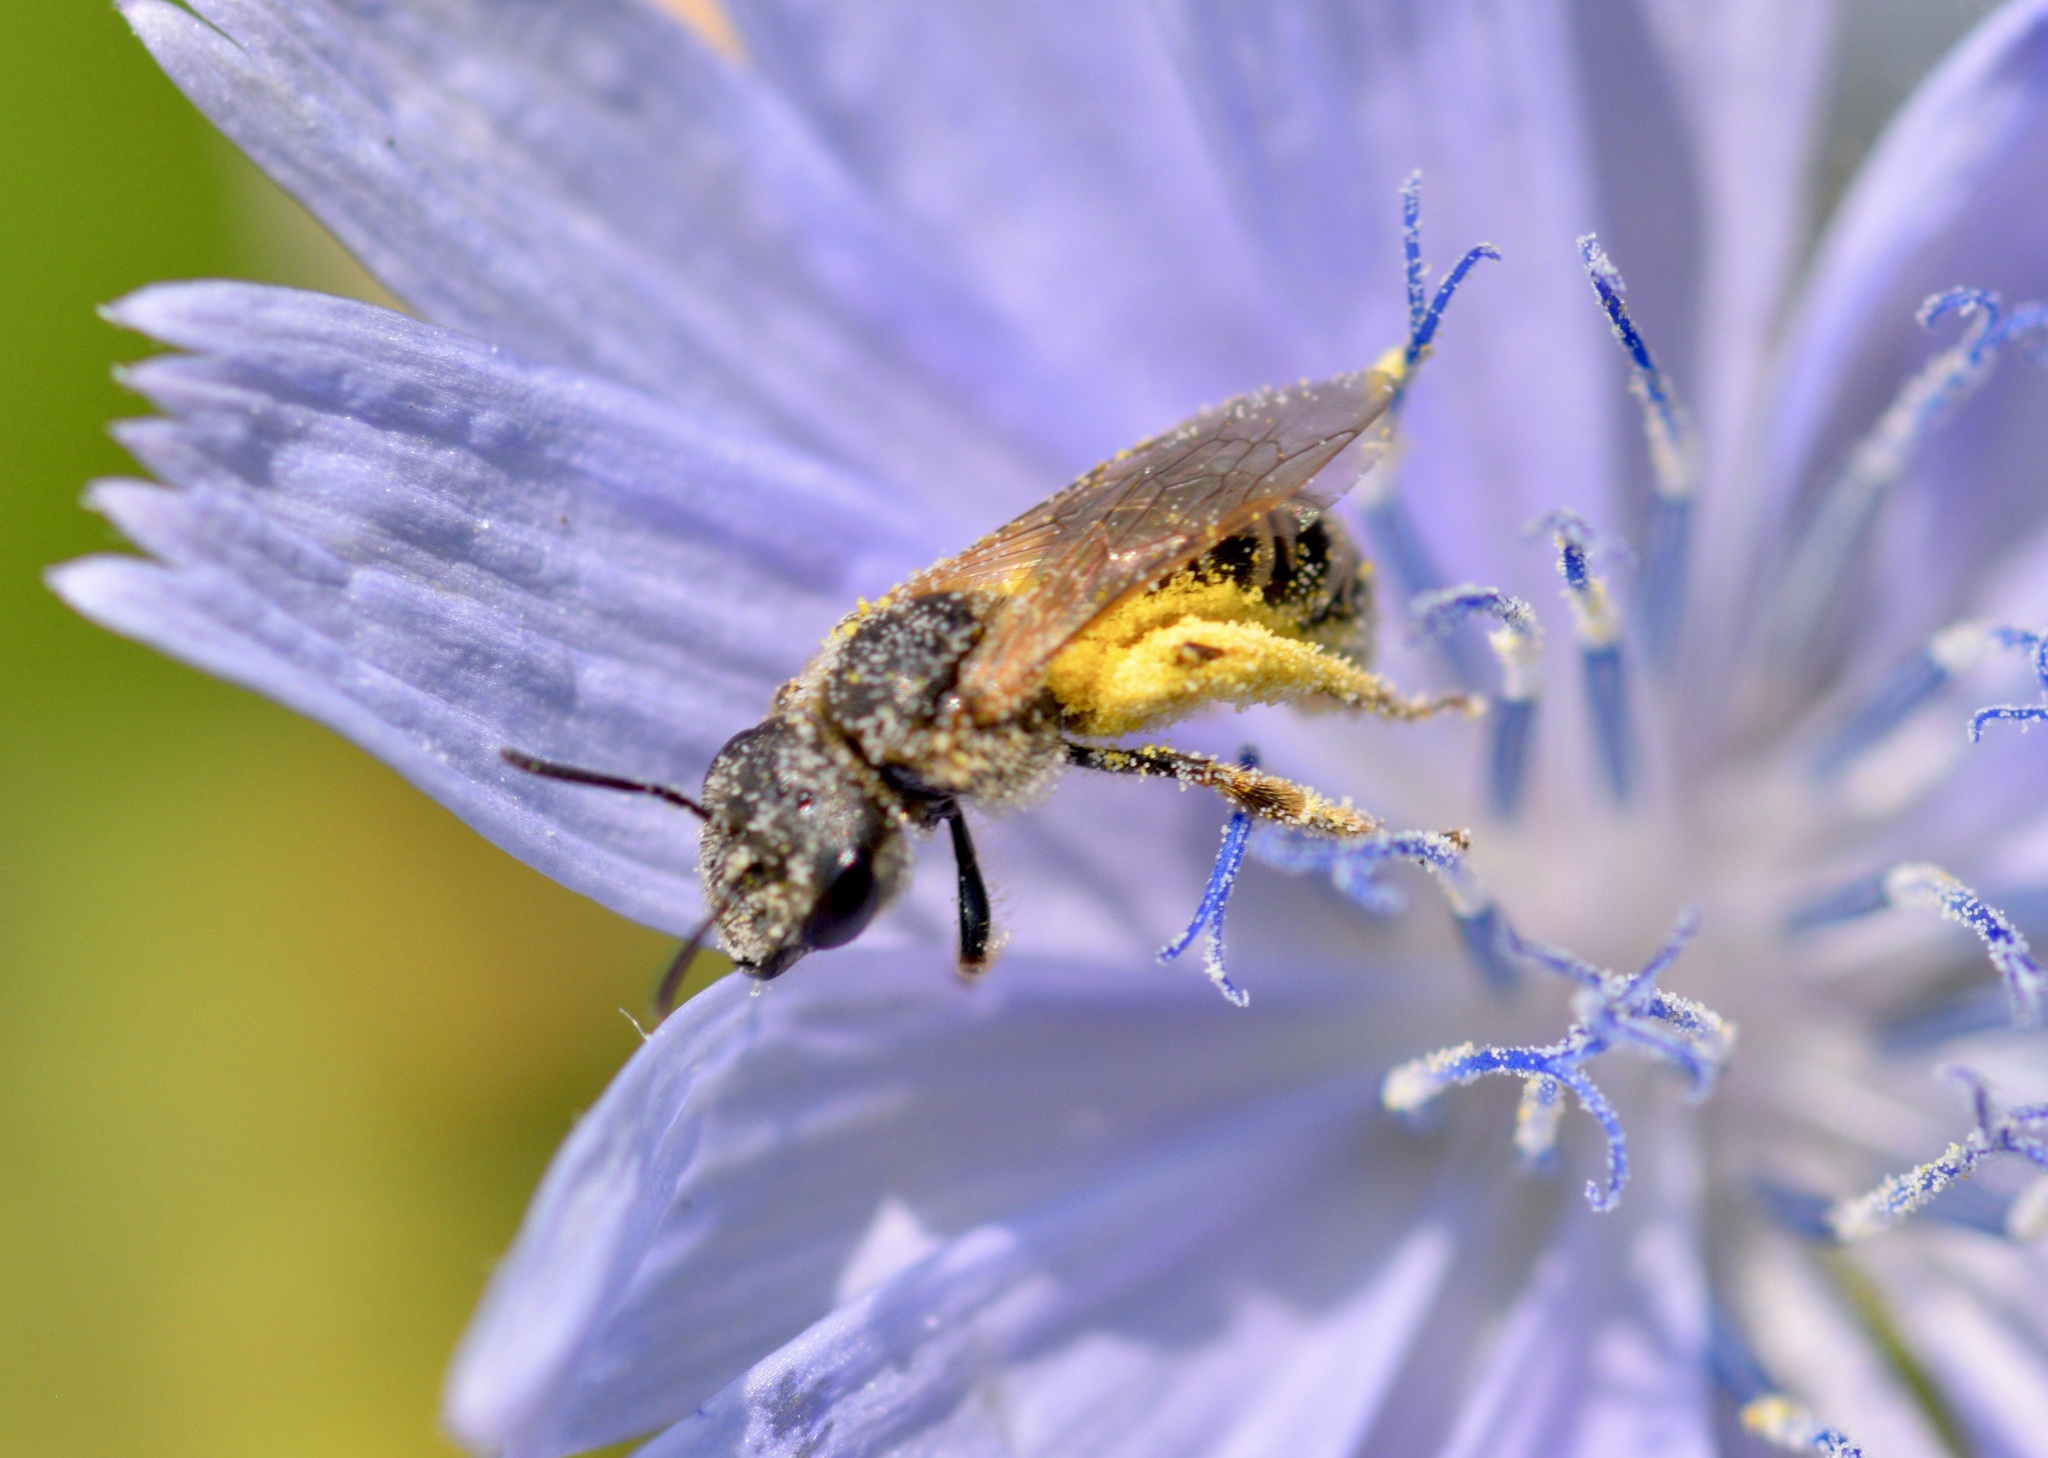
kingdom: Animalia
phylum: Arthropoda
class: Insecta
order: Hymenoptera
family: Halictidae
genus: Halictus
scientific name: Halictus ligatus
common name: Ligated furrow bee
